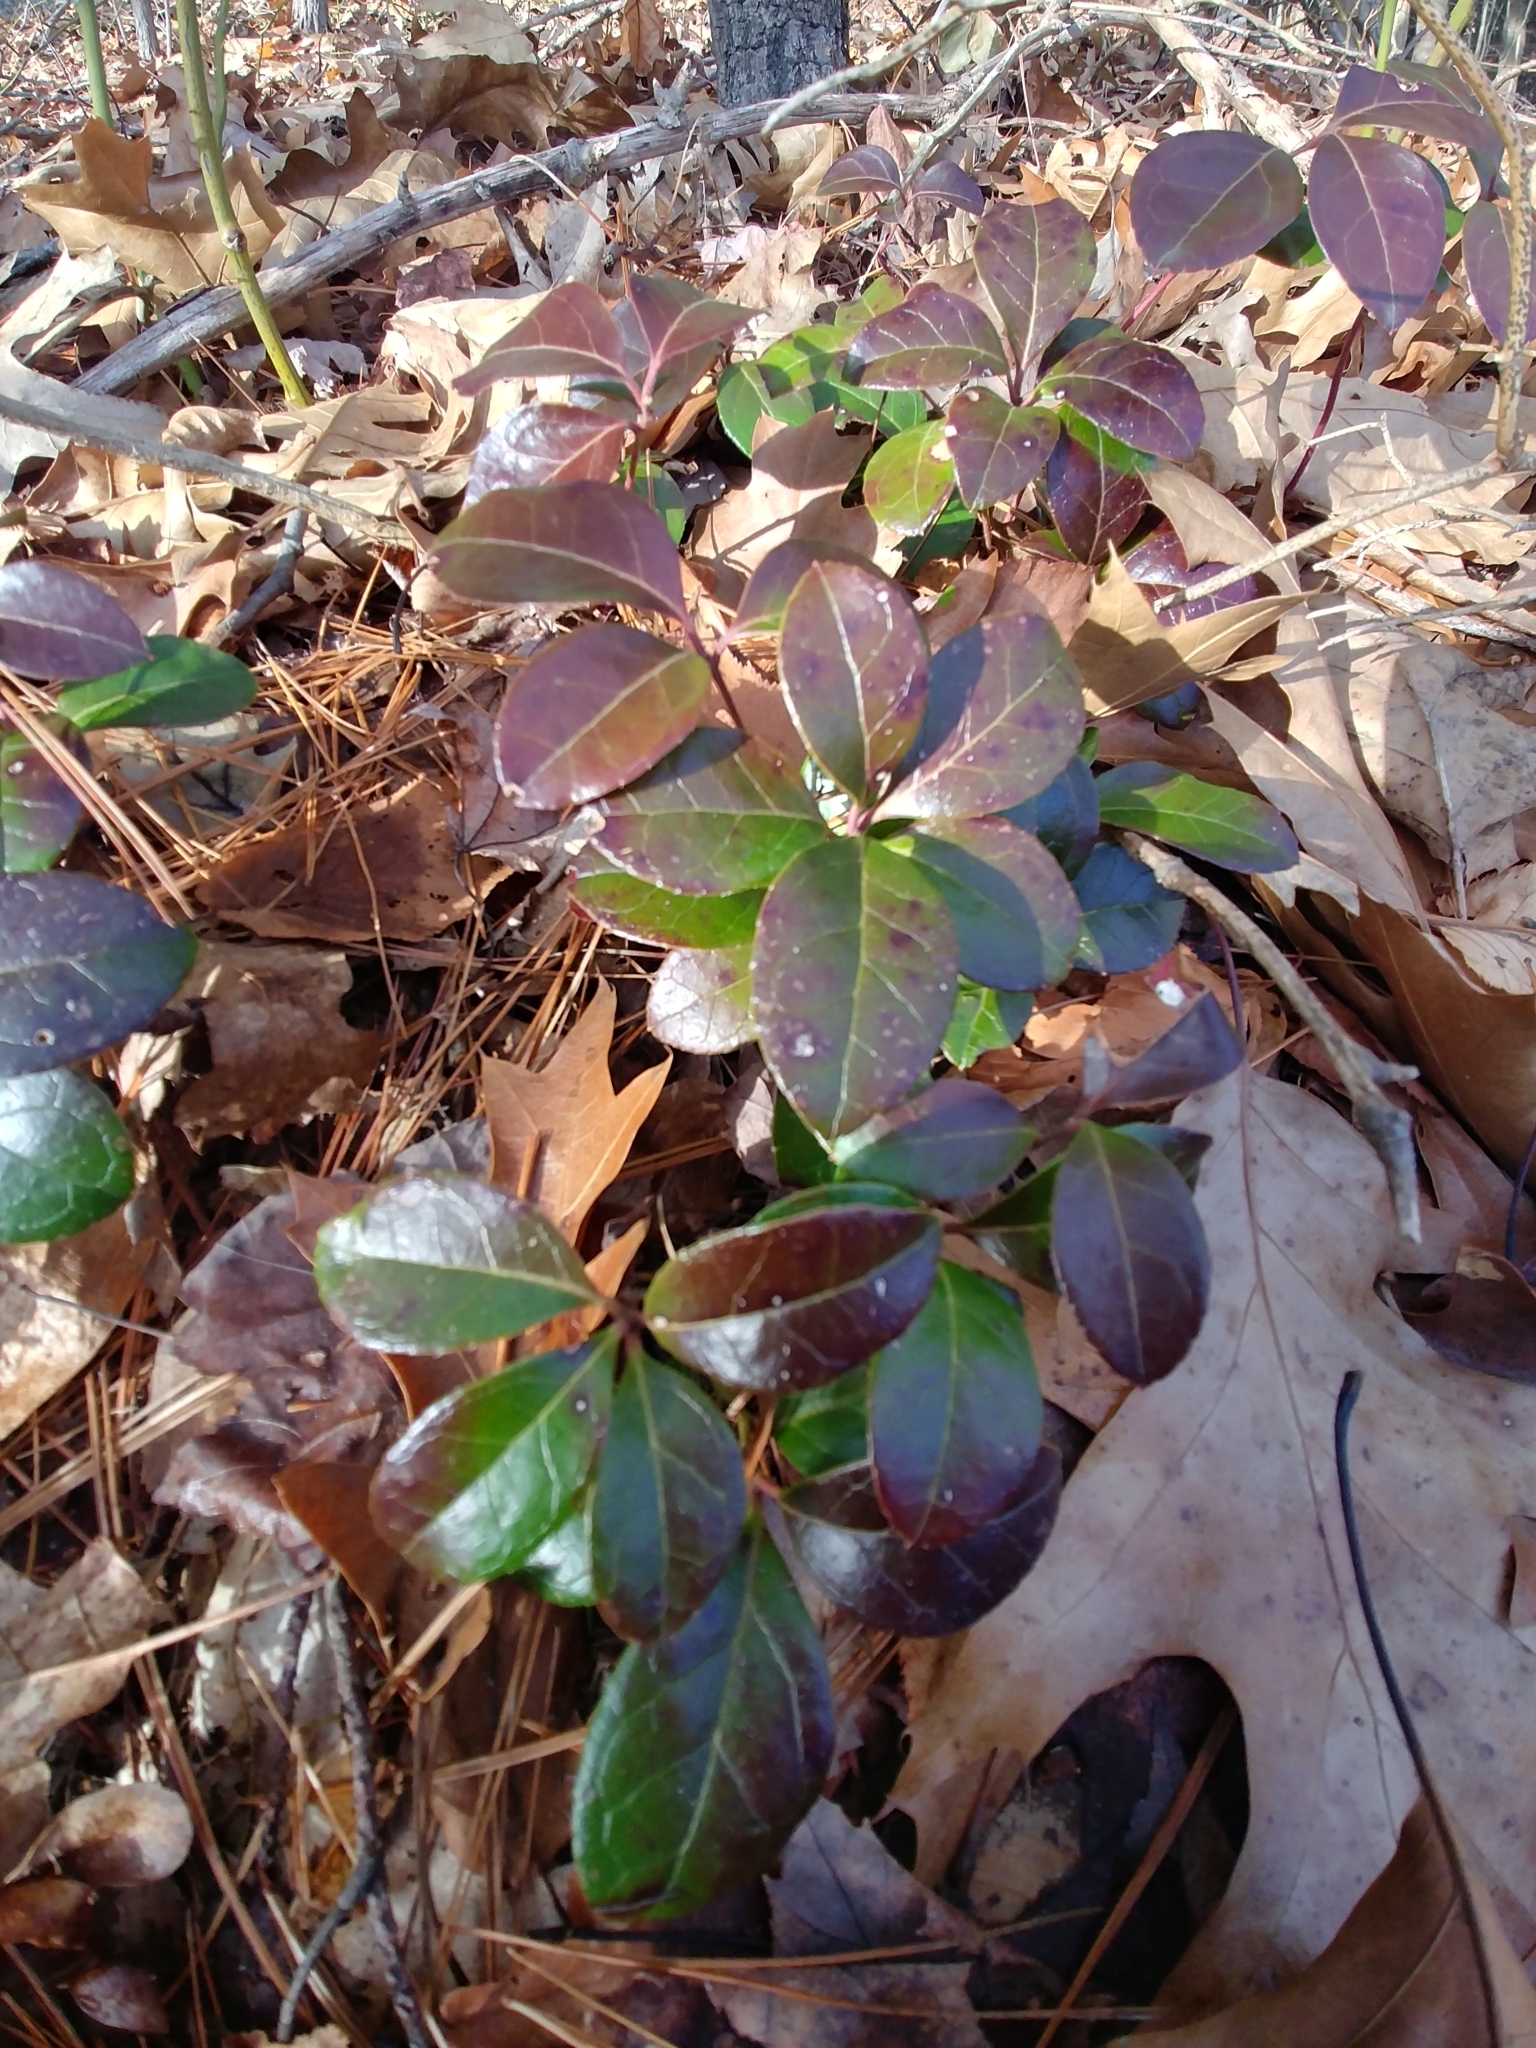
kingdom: Plantae
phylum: Tracheophyta
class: Magnoliopsida
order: Ericales
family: Ericaceae
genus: Gaultheria
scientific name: Gaultheria procumbens
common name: Checkerberry
